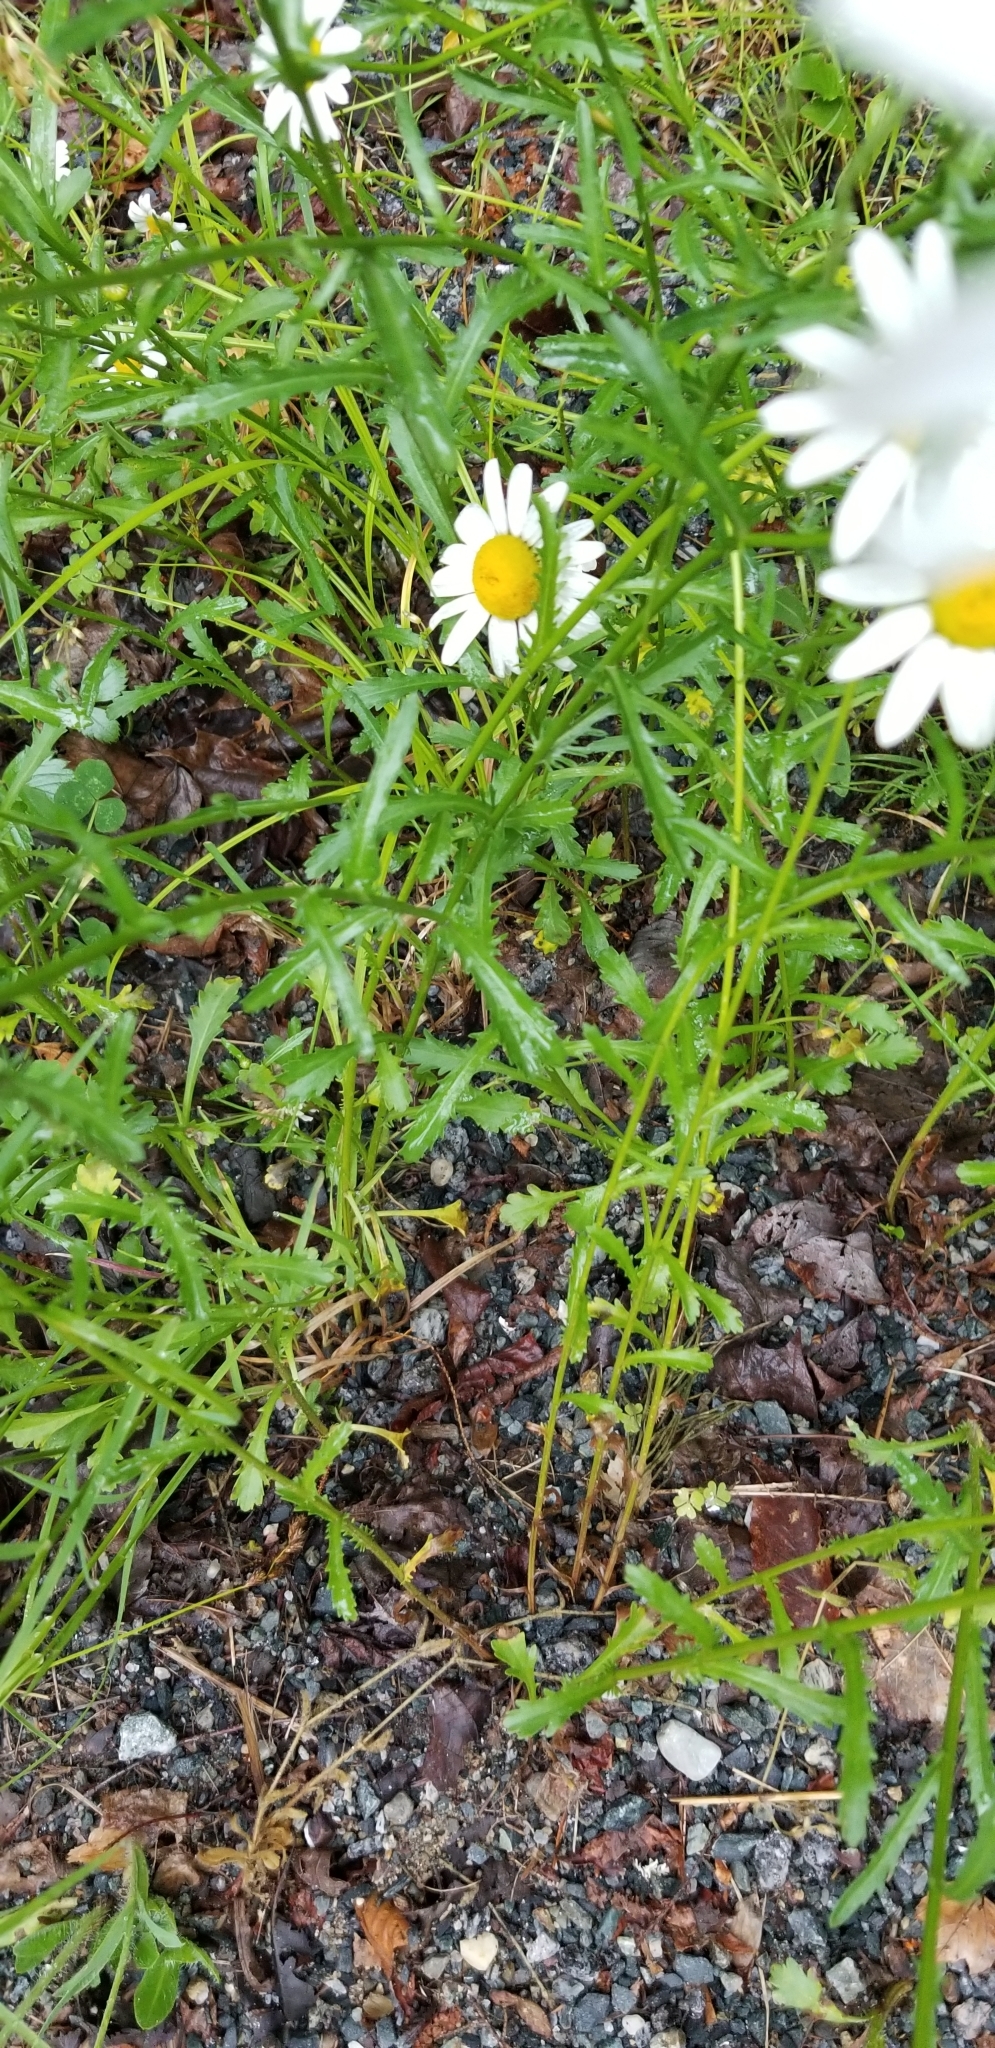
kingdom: Plantae
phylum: Tracheophyta
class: Magnoliopsida
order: Asterales
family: Asteraceae
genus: Leucanthemum
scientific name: Leucanthemum vulgare
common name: Oxeye daisy
